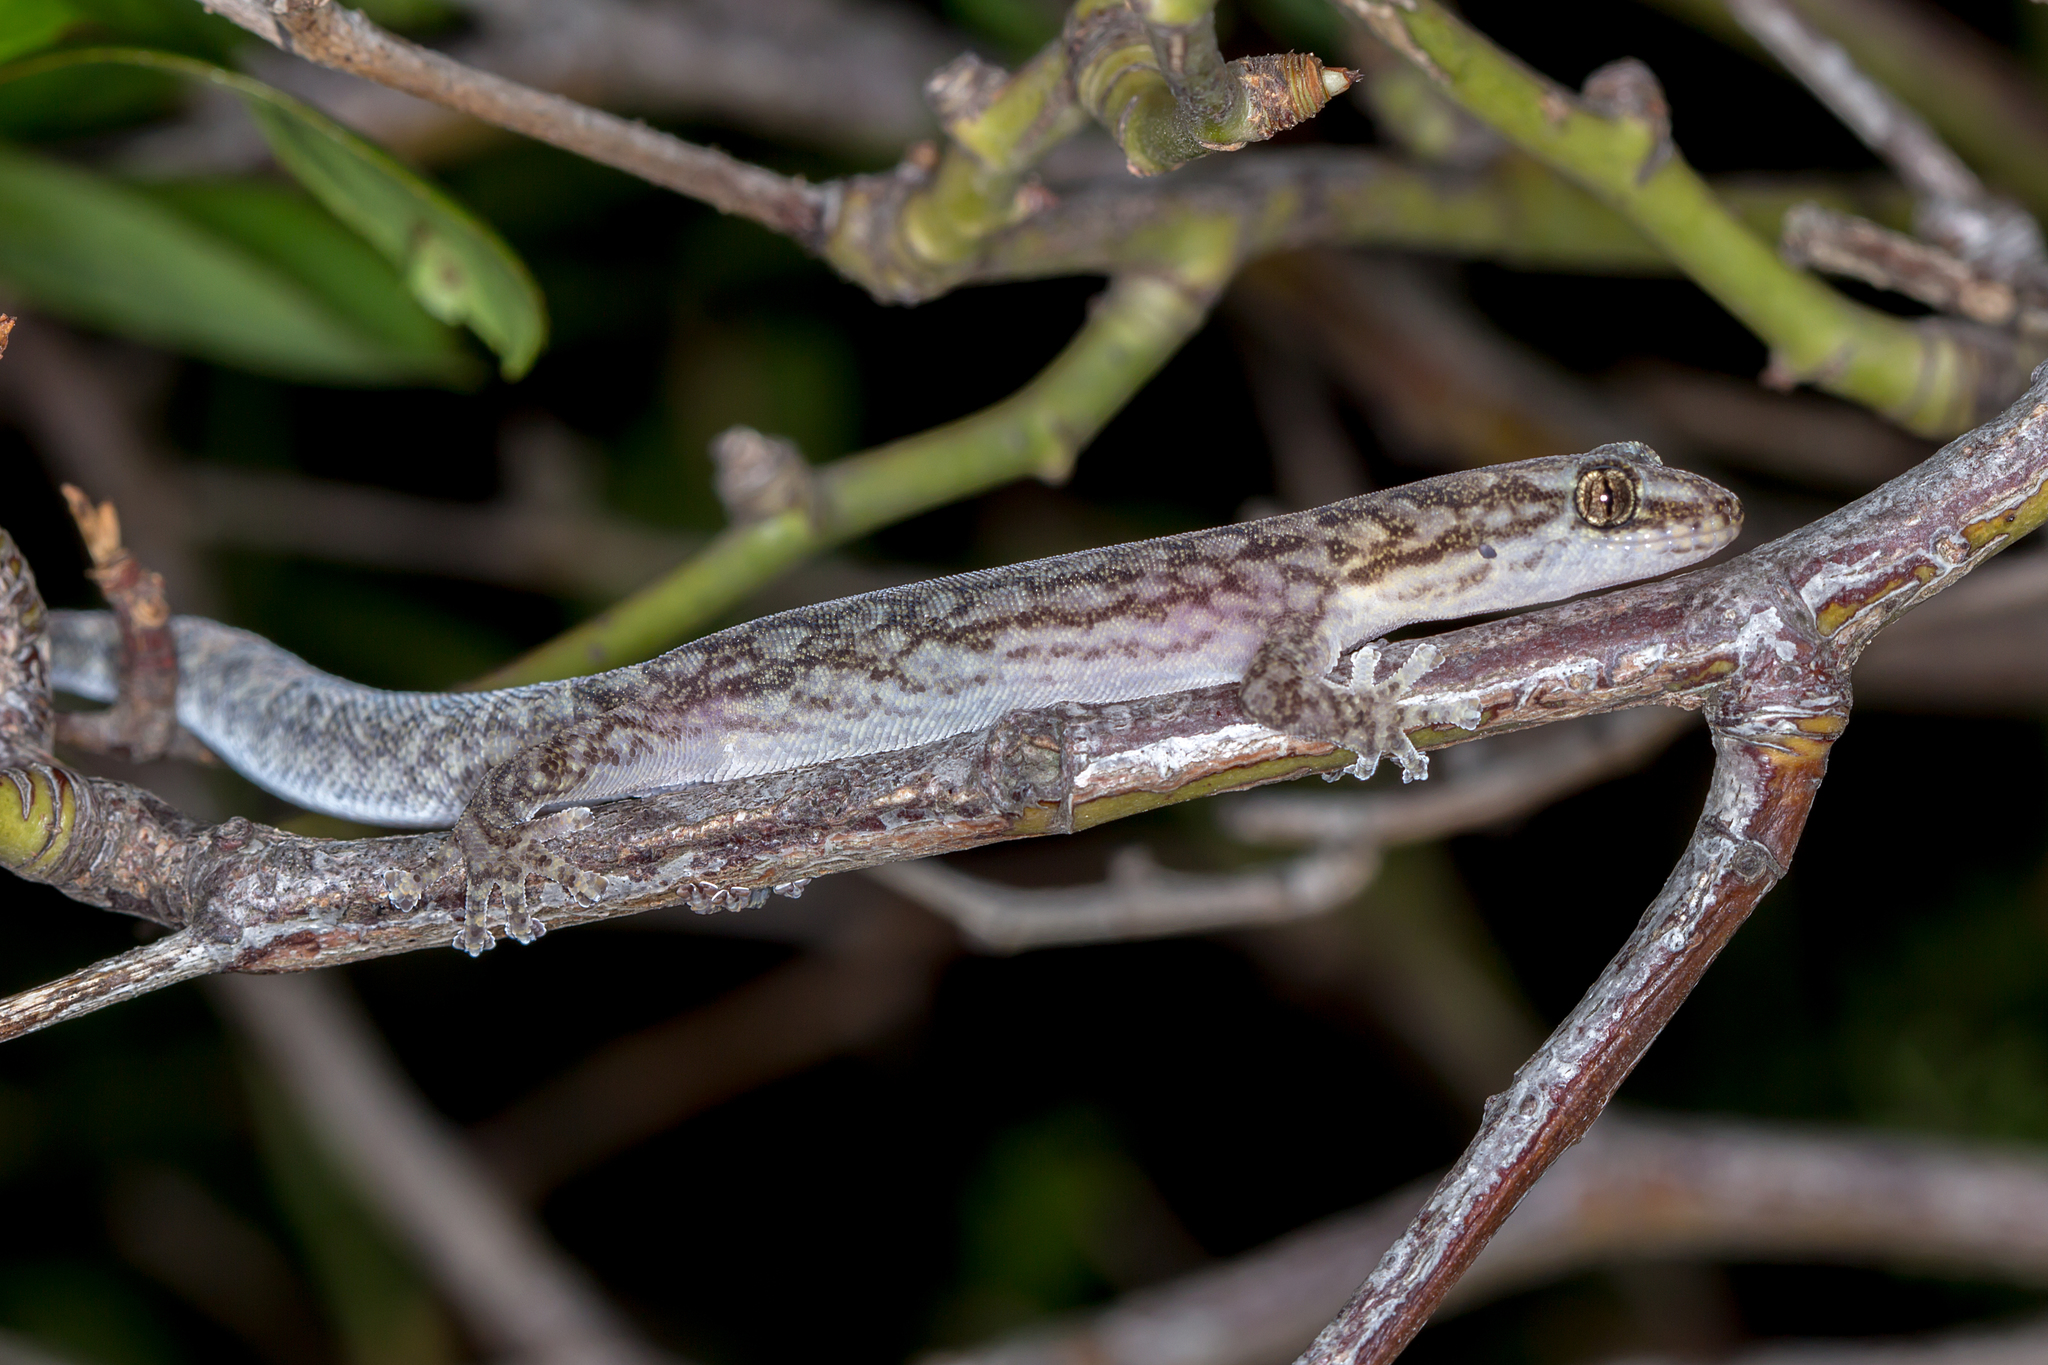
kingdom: Animalia
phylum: Chordata
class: Squamata
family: Gekkonidae
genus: Christinus
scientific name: Christinus marmoratus
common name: Marbled gecko
